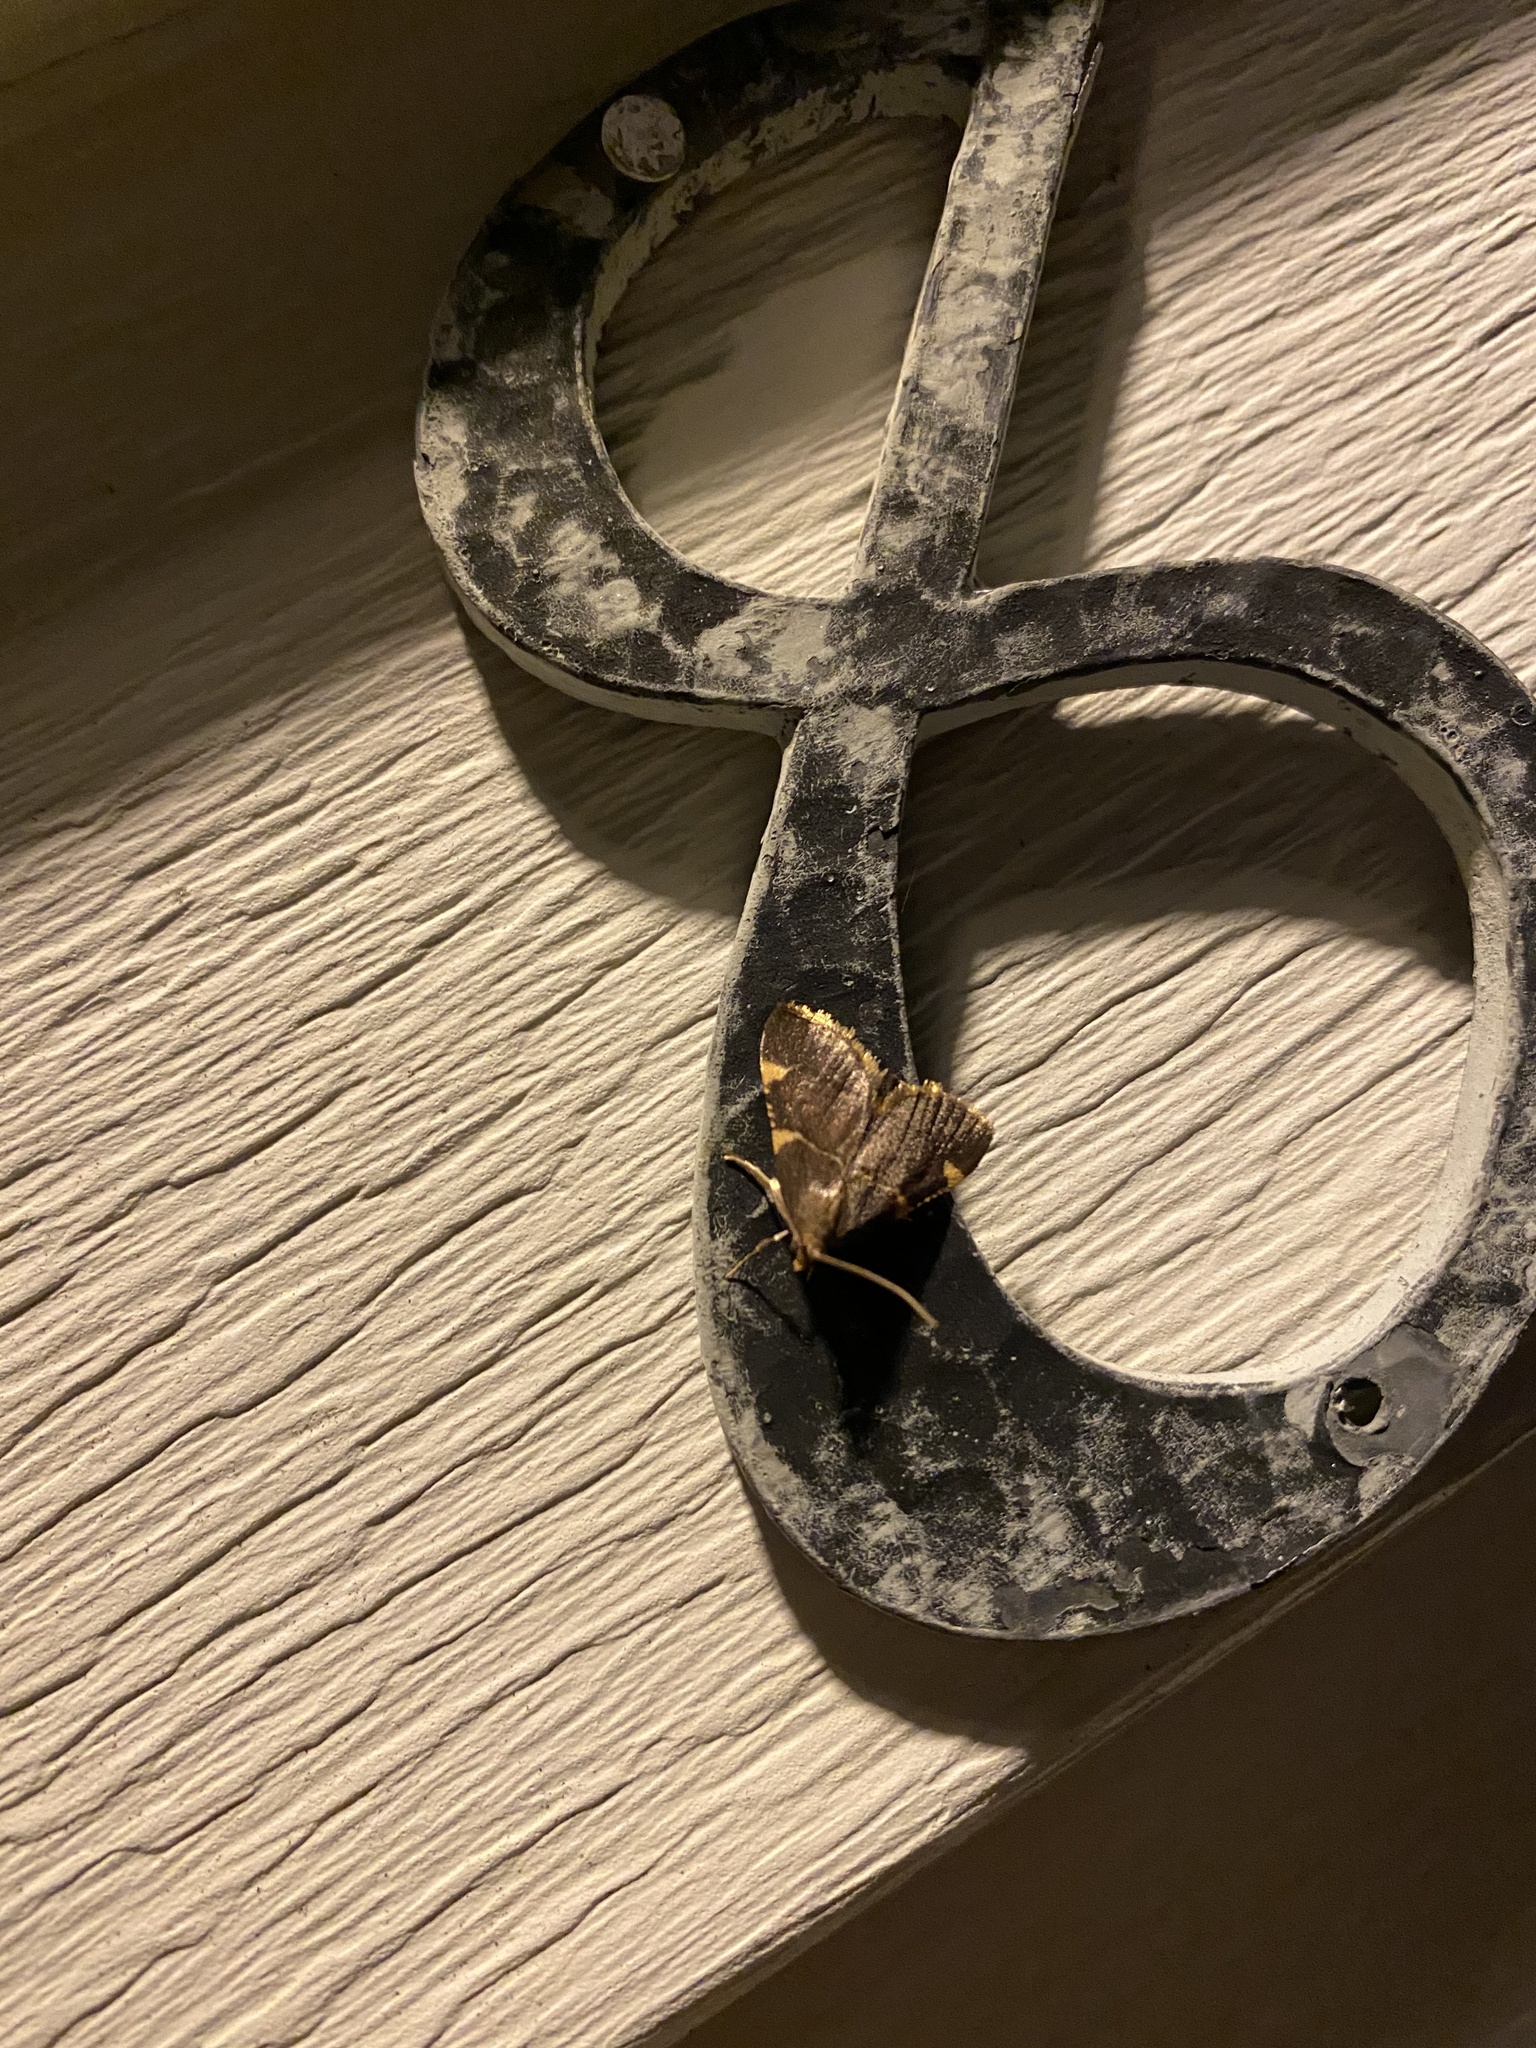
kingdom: Animalia
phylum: Arthropoda
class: Insecta
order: Lepidoptera
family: Pyralidae
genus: Hypsopygia
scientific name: Hypsopygia olinalis
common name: Yellow-fringed dolichomia moth
